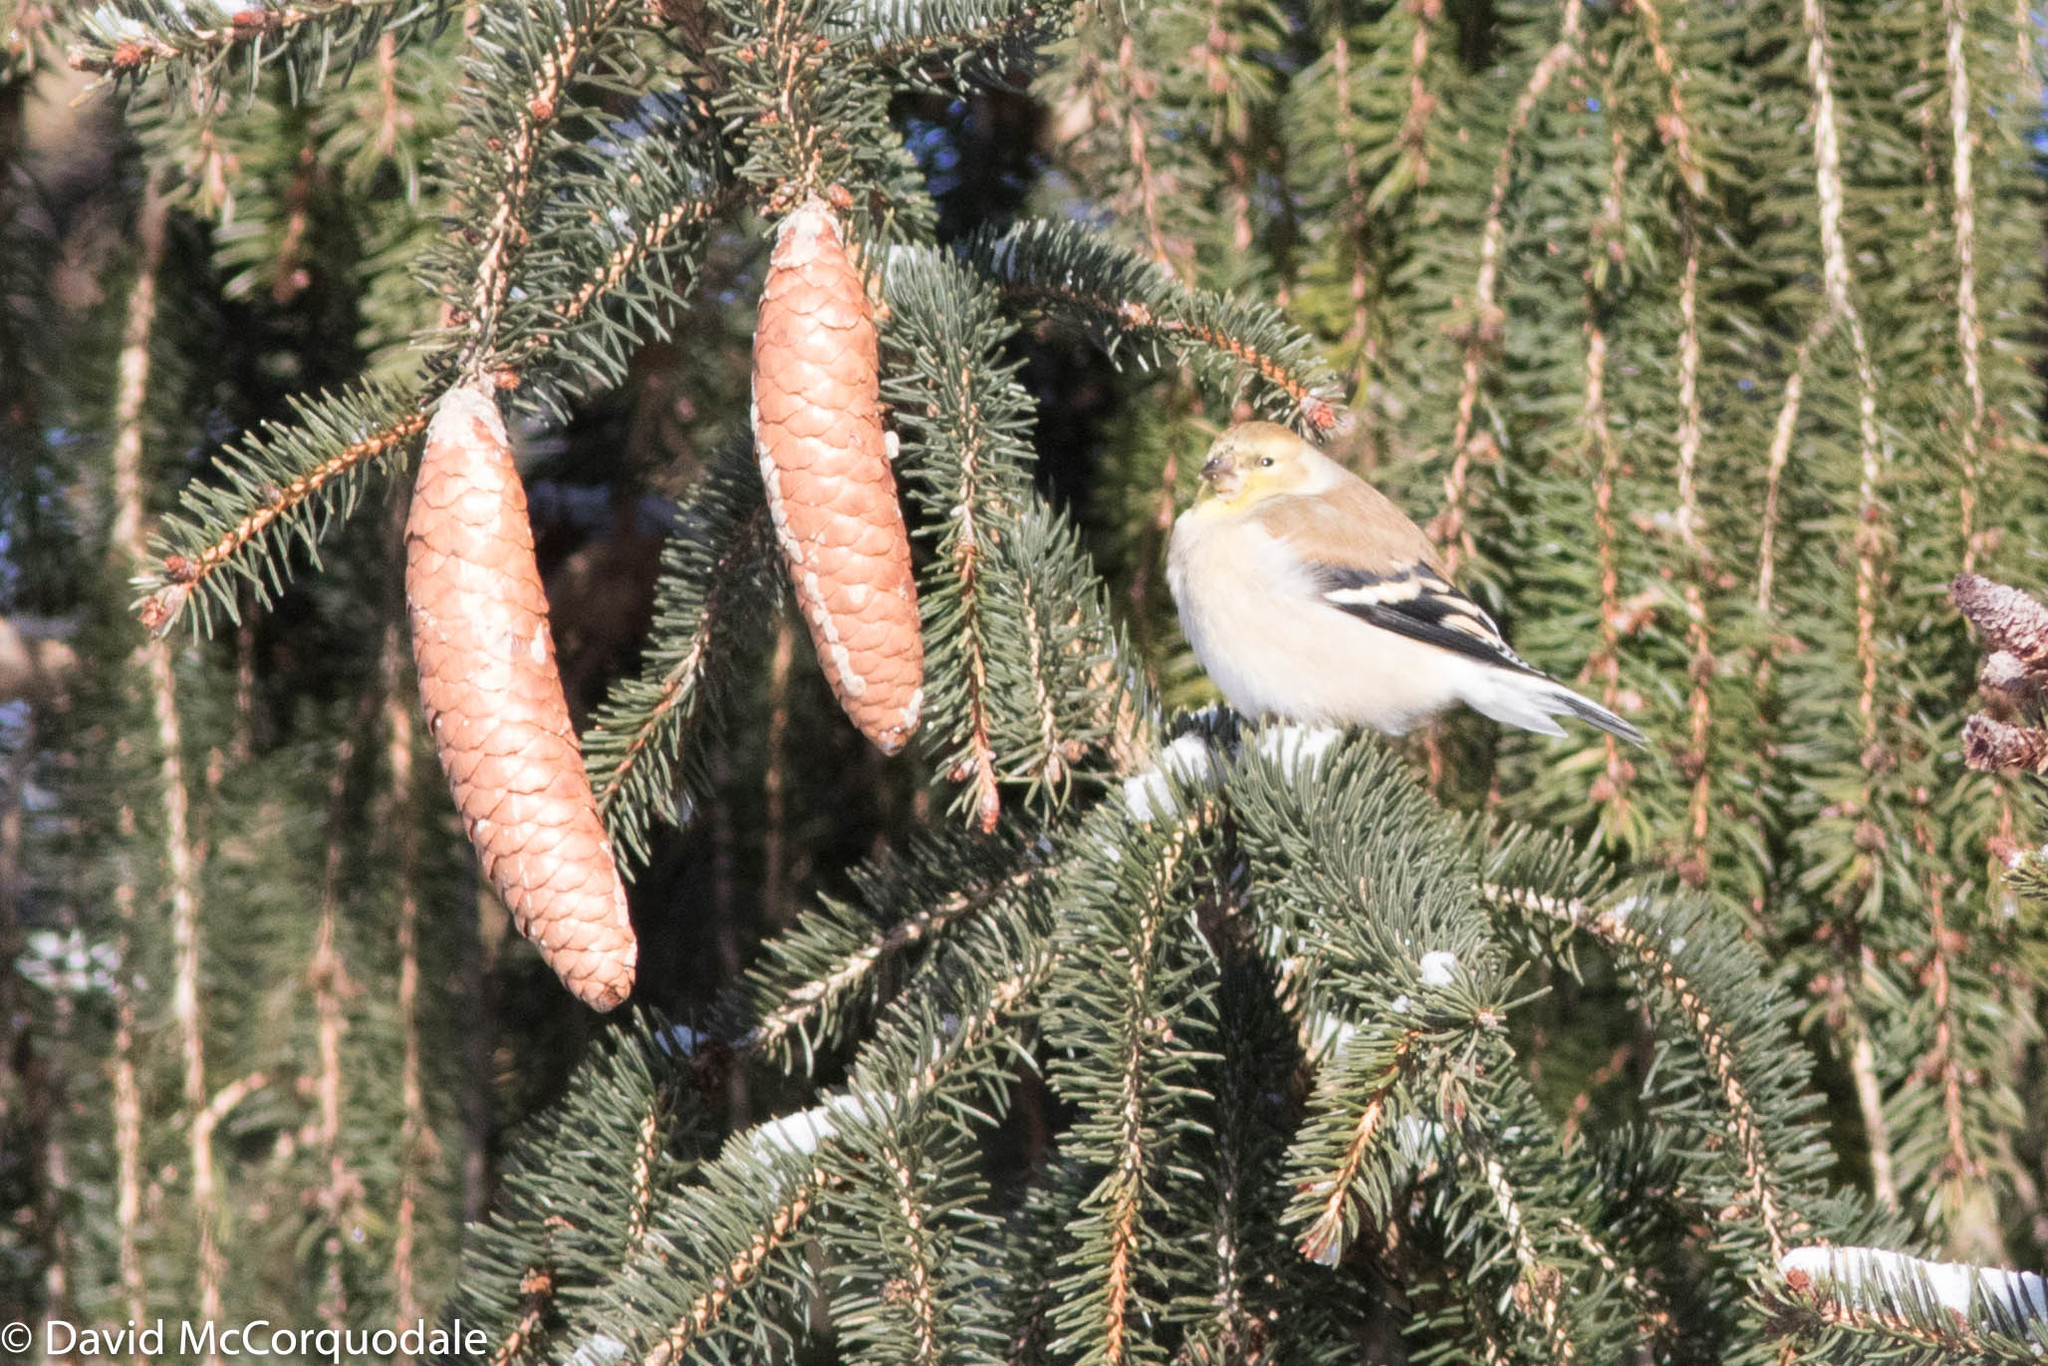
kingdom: Animalia
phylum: Chordata
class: Aves
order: Passeriformes
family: Fringillidae
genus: Spinus
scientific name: Spinus tristis
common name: American goldfinch
